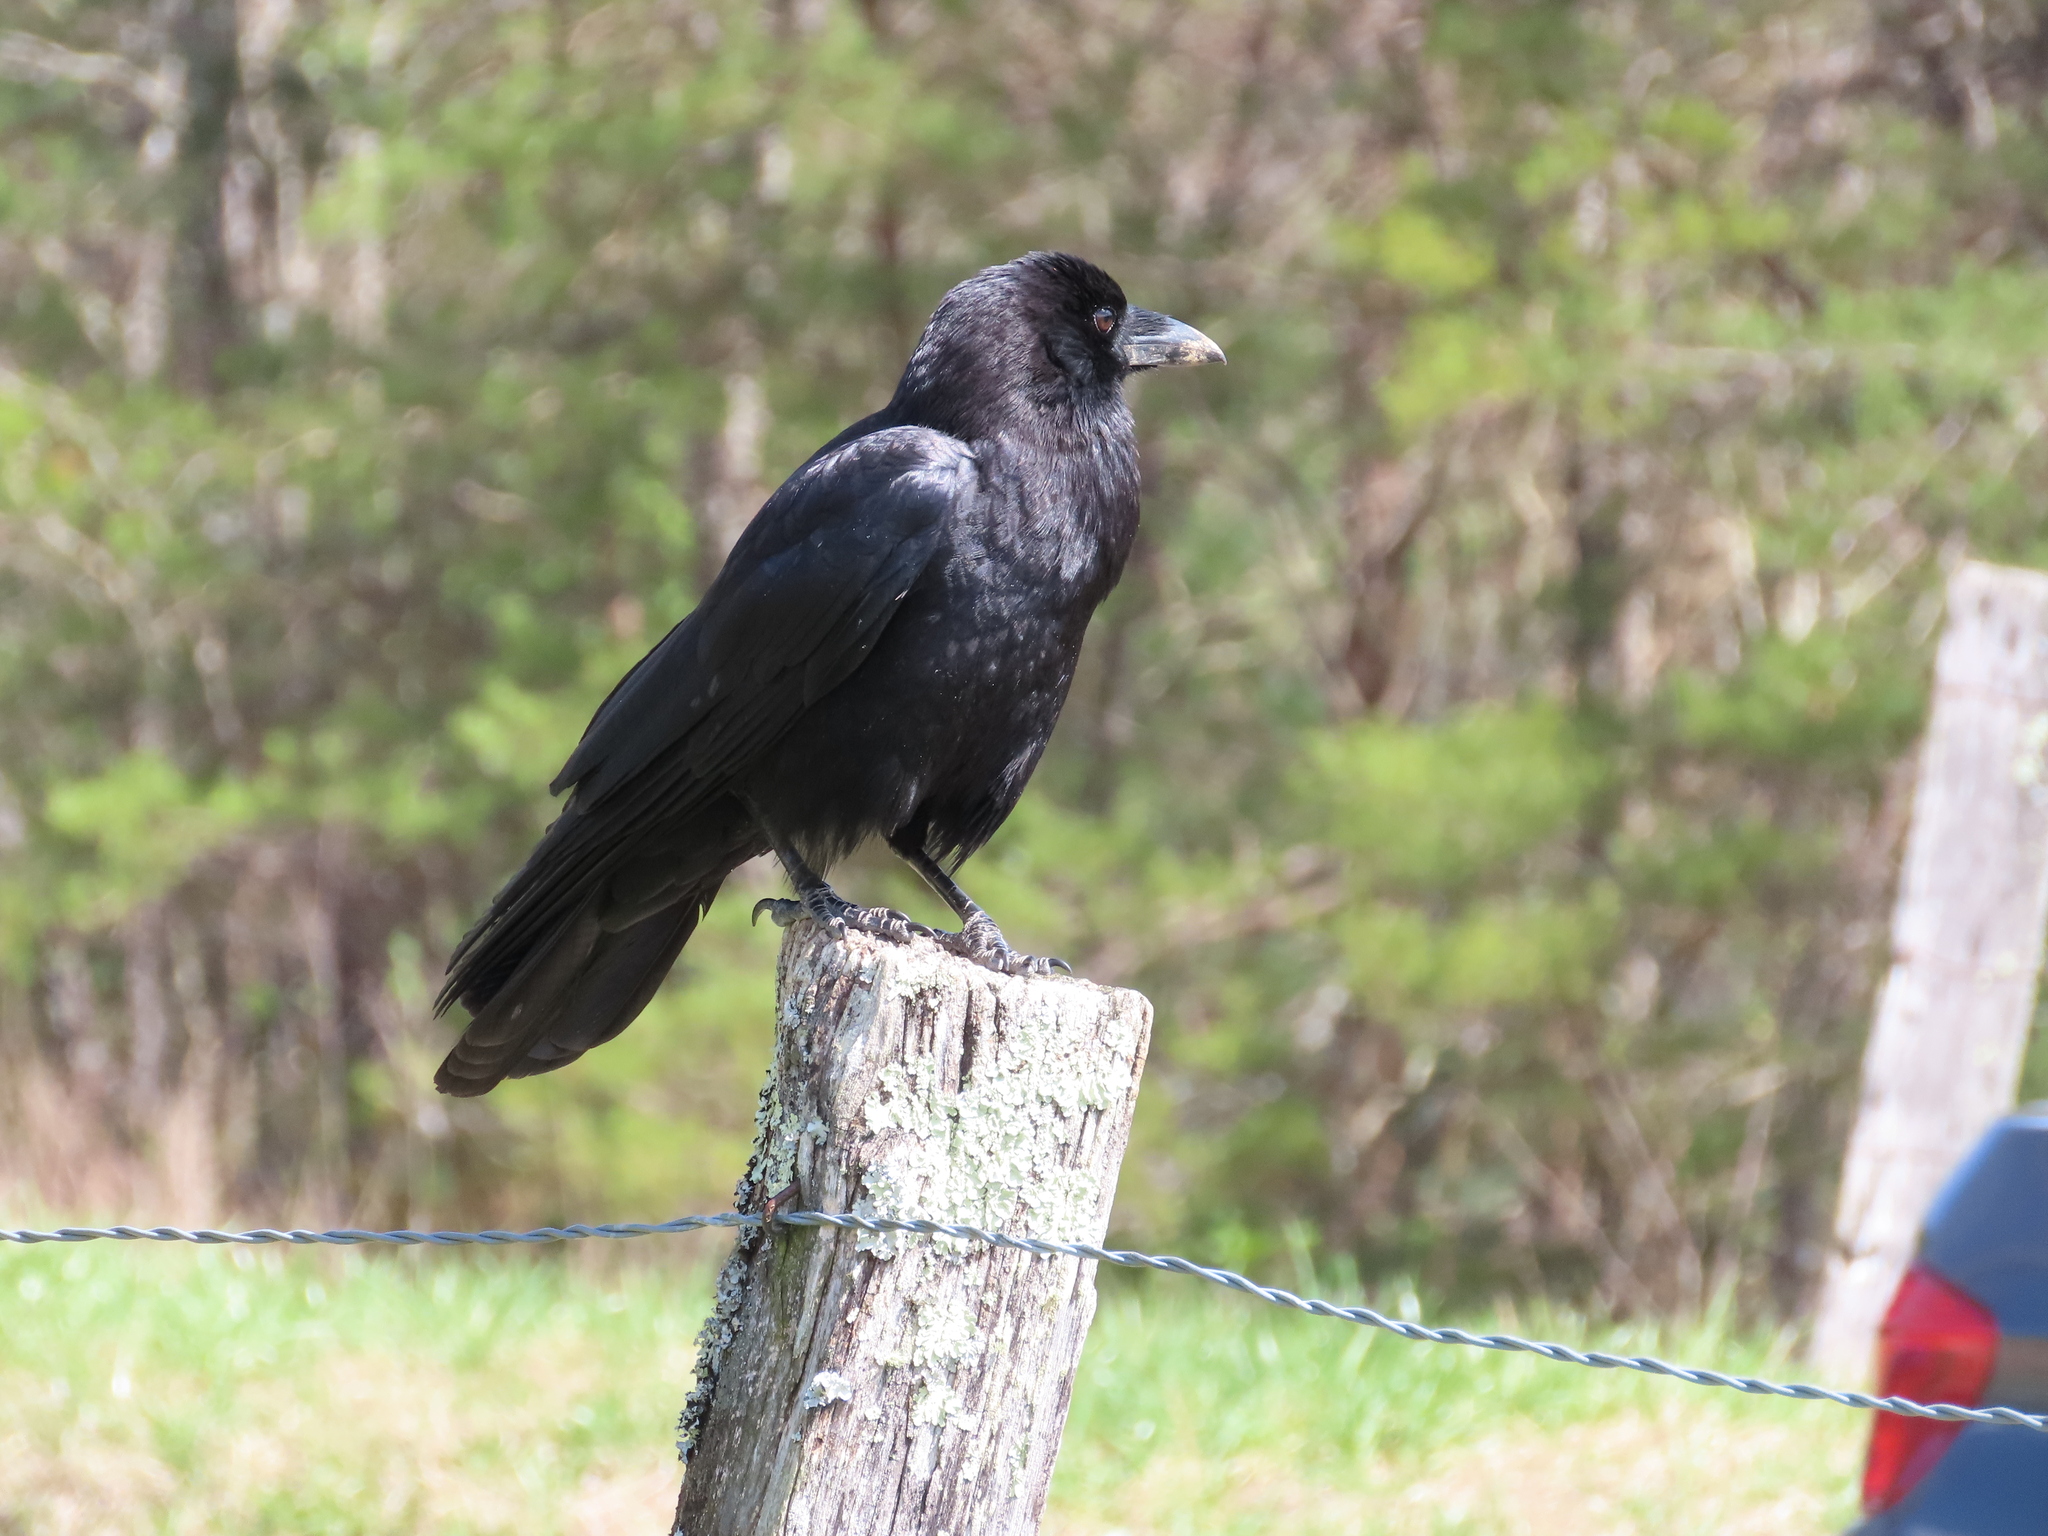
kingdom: Animalia
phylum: Chordata
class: Aves
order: Passeriformes
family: Corvidae
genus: Corvus
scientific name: Corvus brachyrhynchos
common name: American crow
